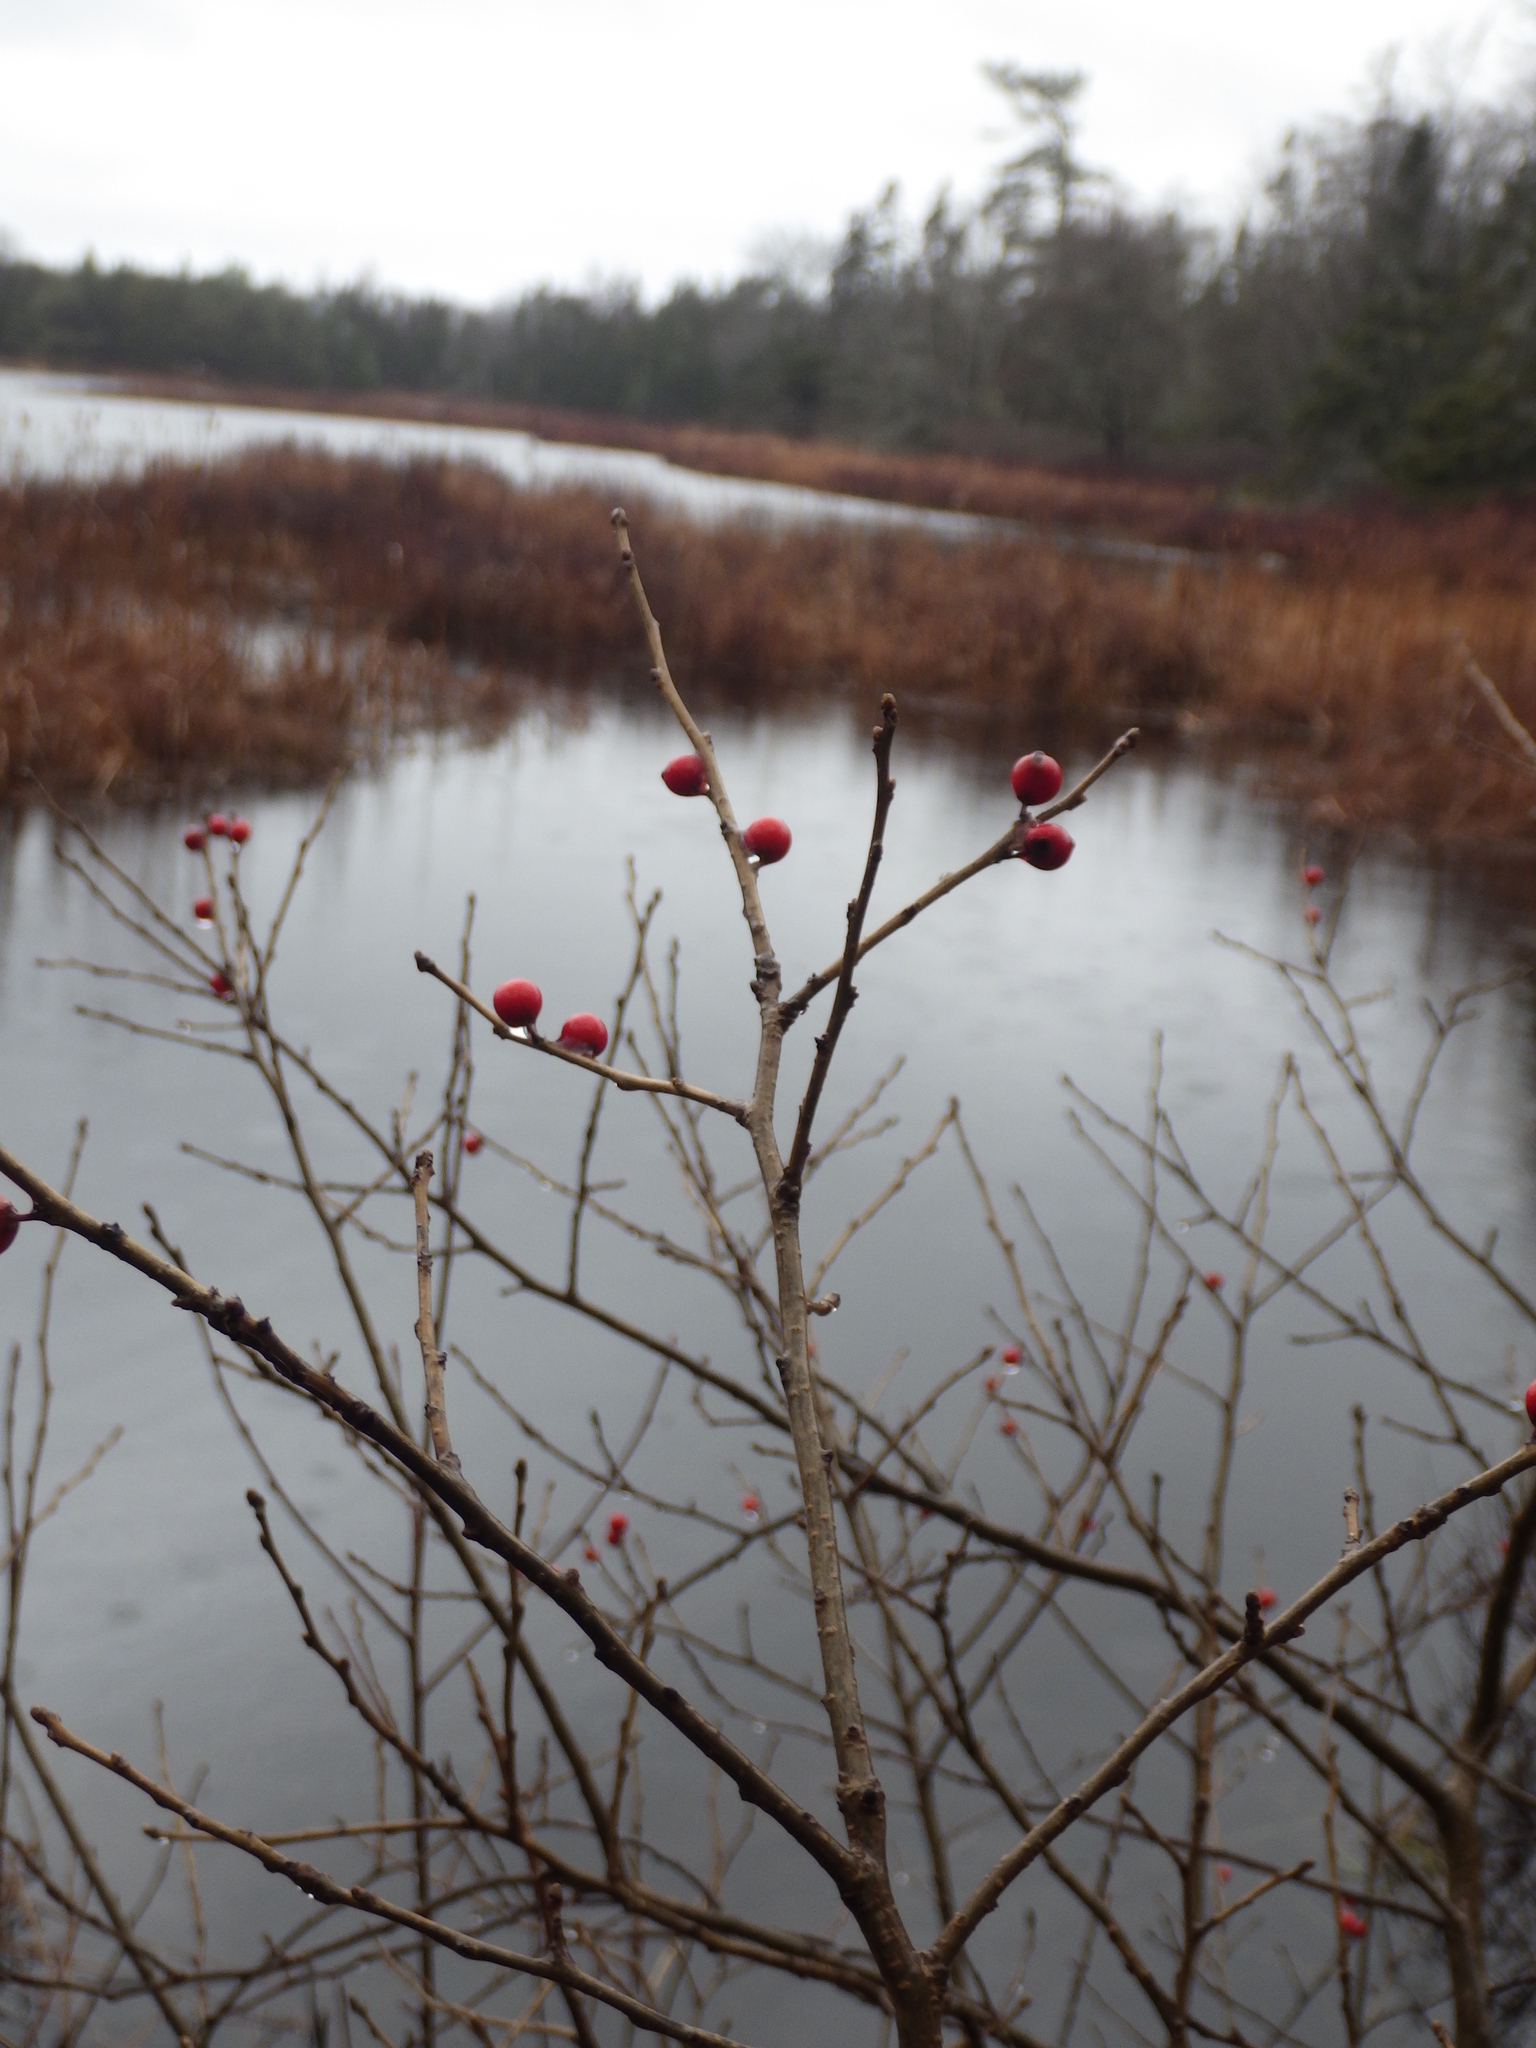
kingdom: Plantae
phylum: Tracheophyta
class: Magnoliopsida
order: Aquifoliales
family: Aquifoliaceae
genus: Ilex
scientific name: Ilex verticillata
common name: Virginia winterberry
